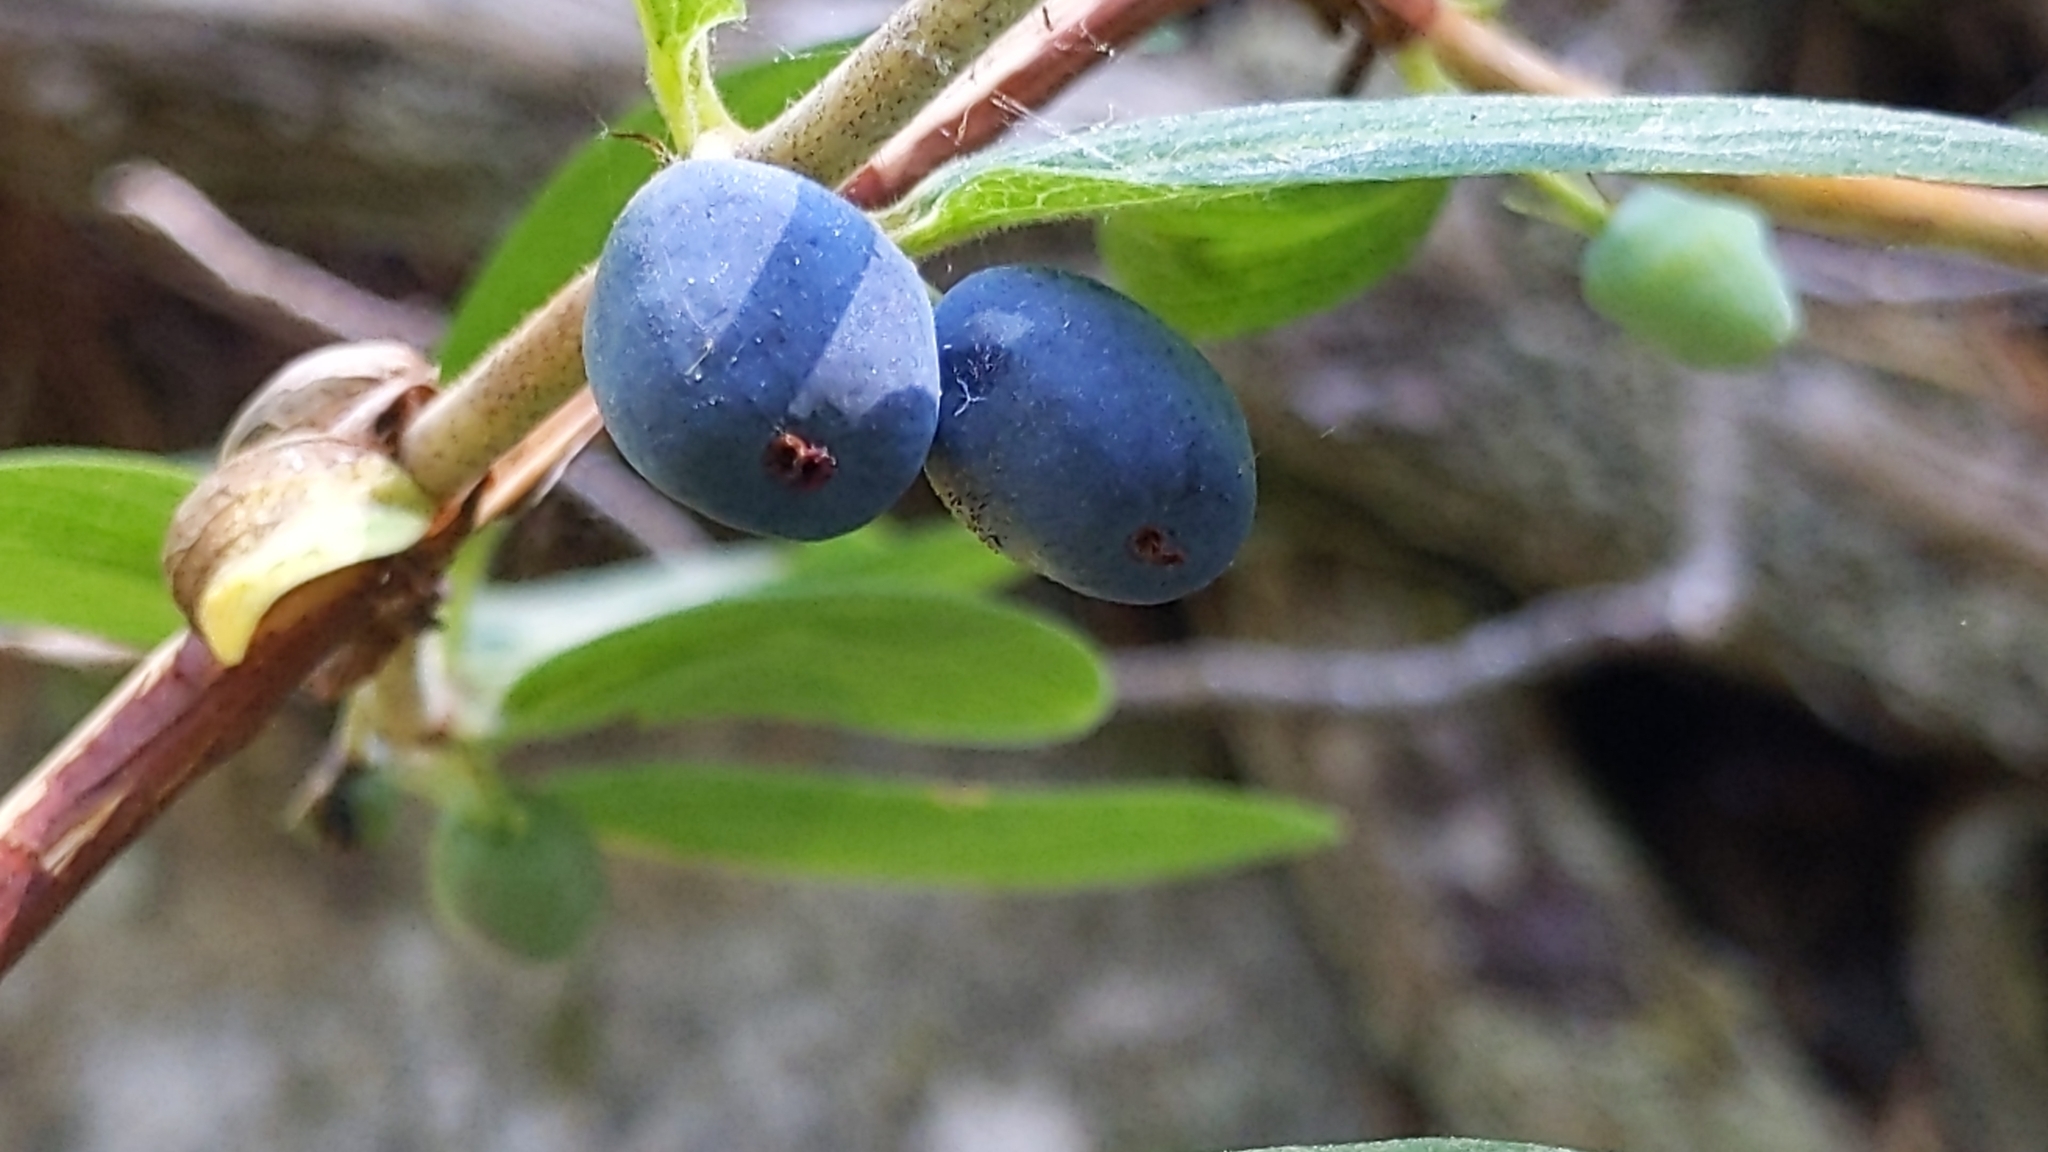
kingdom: Plantae
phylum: Tracheophyta
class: Magnoliopsida
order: Dipsacales
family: Caprifoliaceae
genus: Lonicera
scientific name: Lonicera caerulea
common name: Blue honeysuckle
